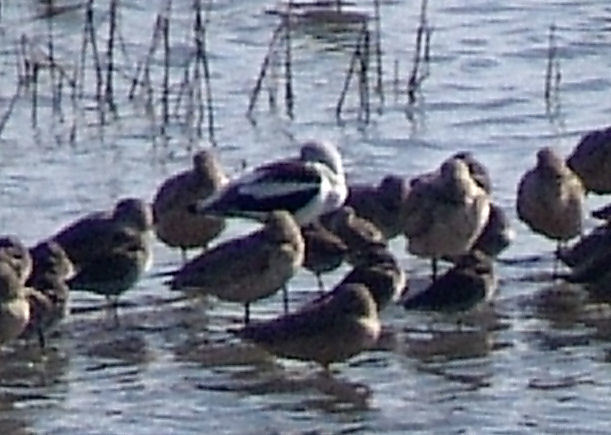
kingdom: Animalia
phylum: Chordata
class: Aves
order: Charadriiformes
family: Recurvirostridae
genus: Recurvirostra
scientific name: Recurvirostra americana
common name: American avocet
